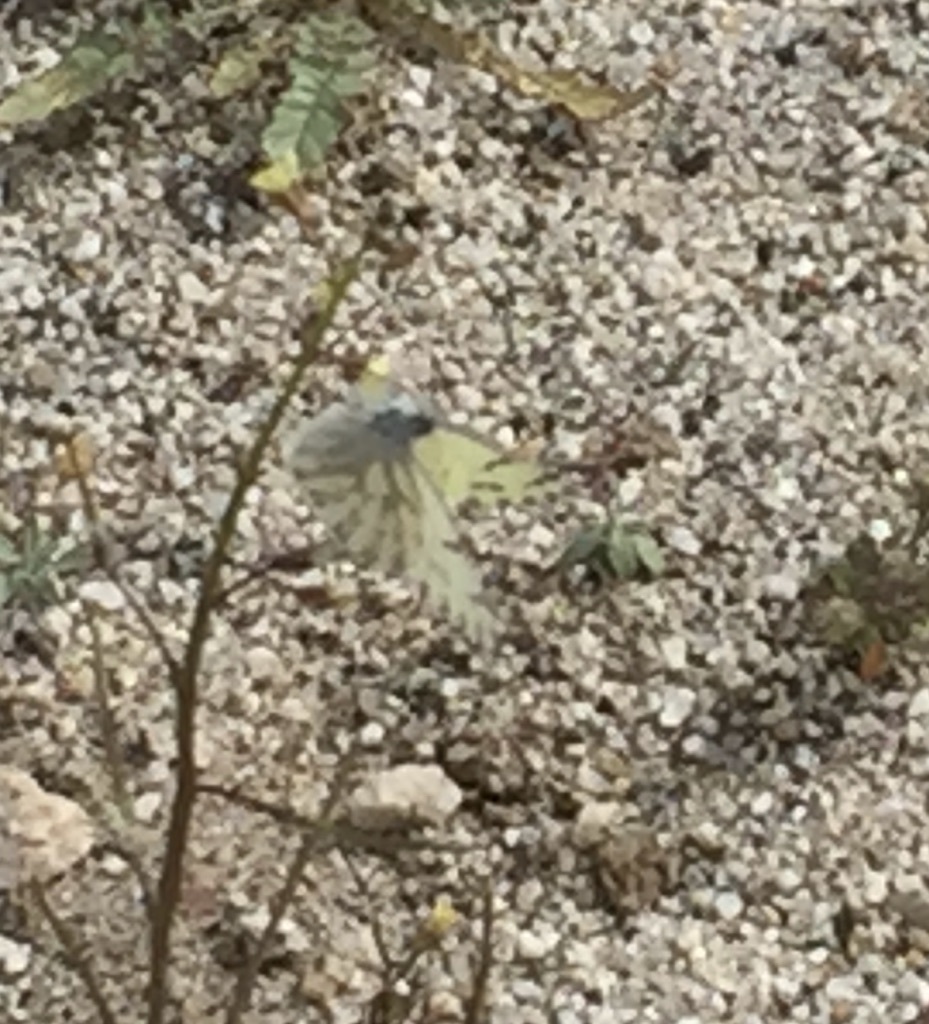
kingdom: Animalia
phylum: Arthropoda
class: Insecta
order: Lepidoptera
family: Pieridae
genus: Pontia
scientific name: Pontia sisymbrii
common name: California white
